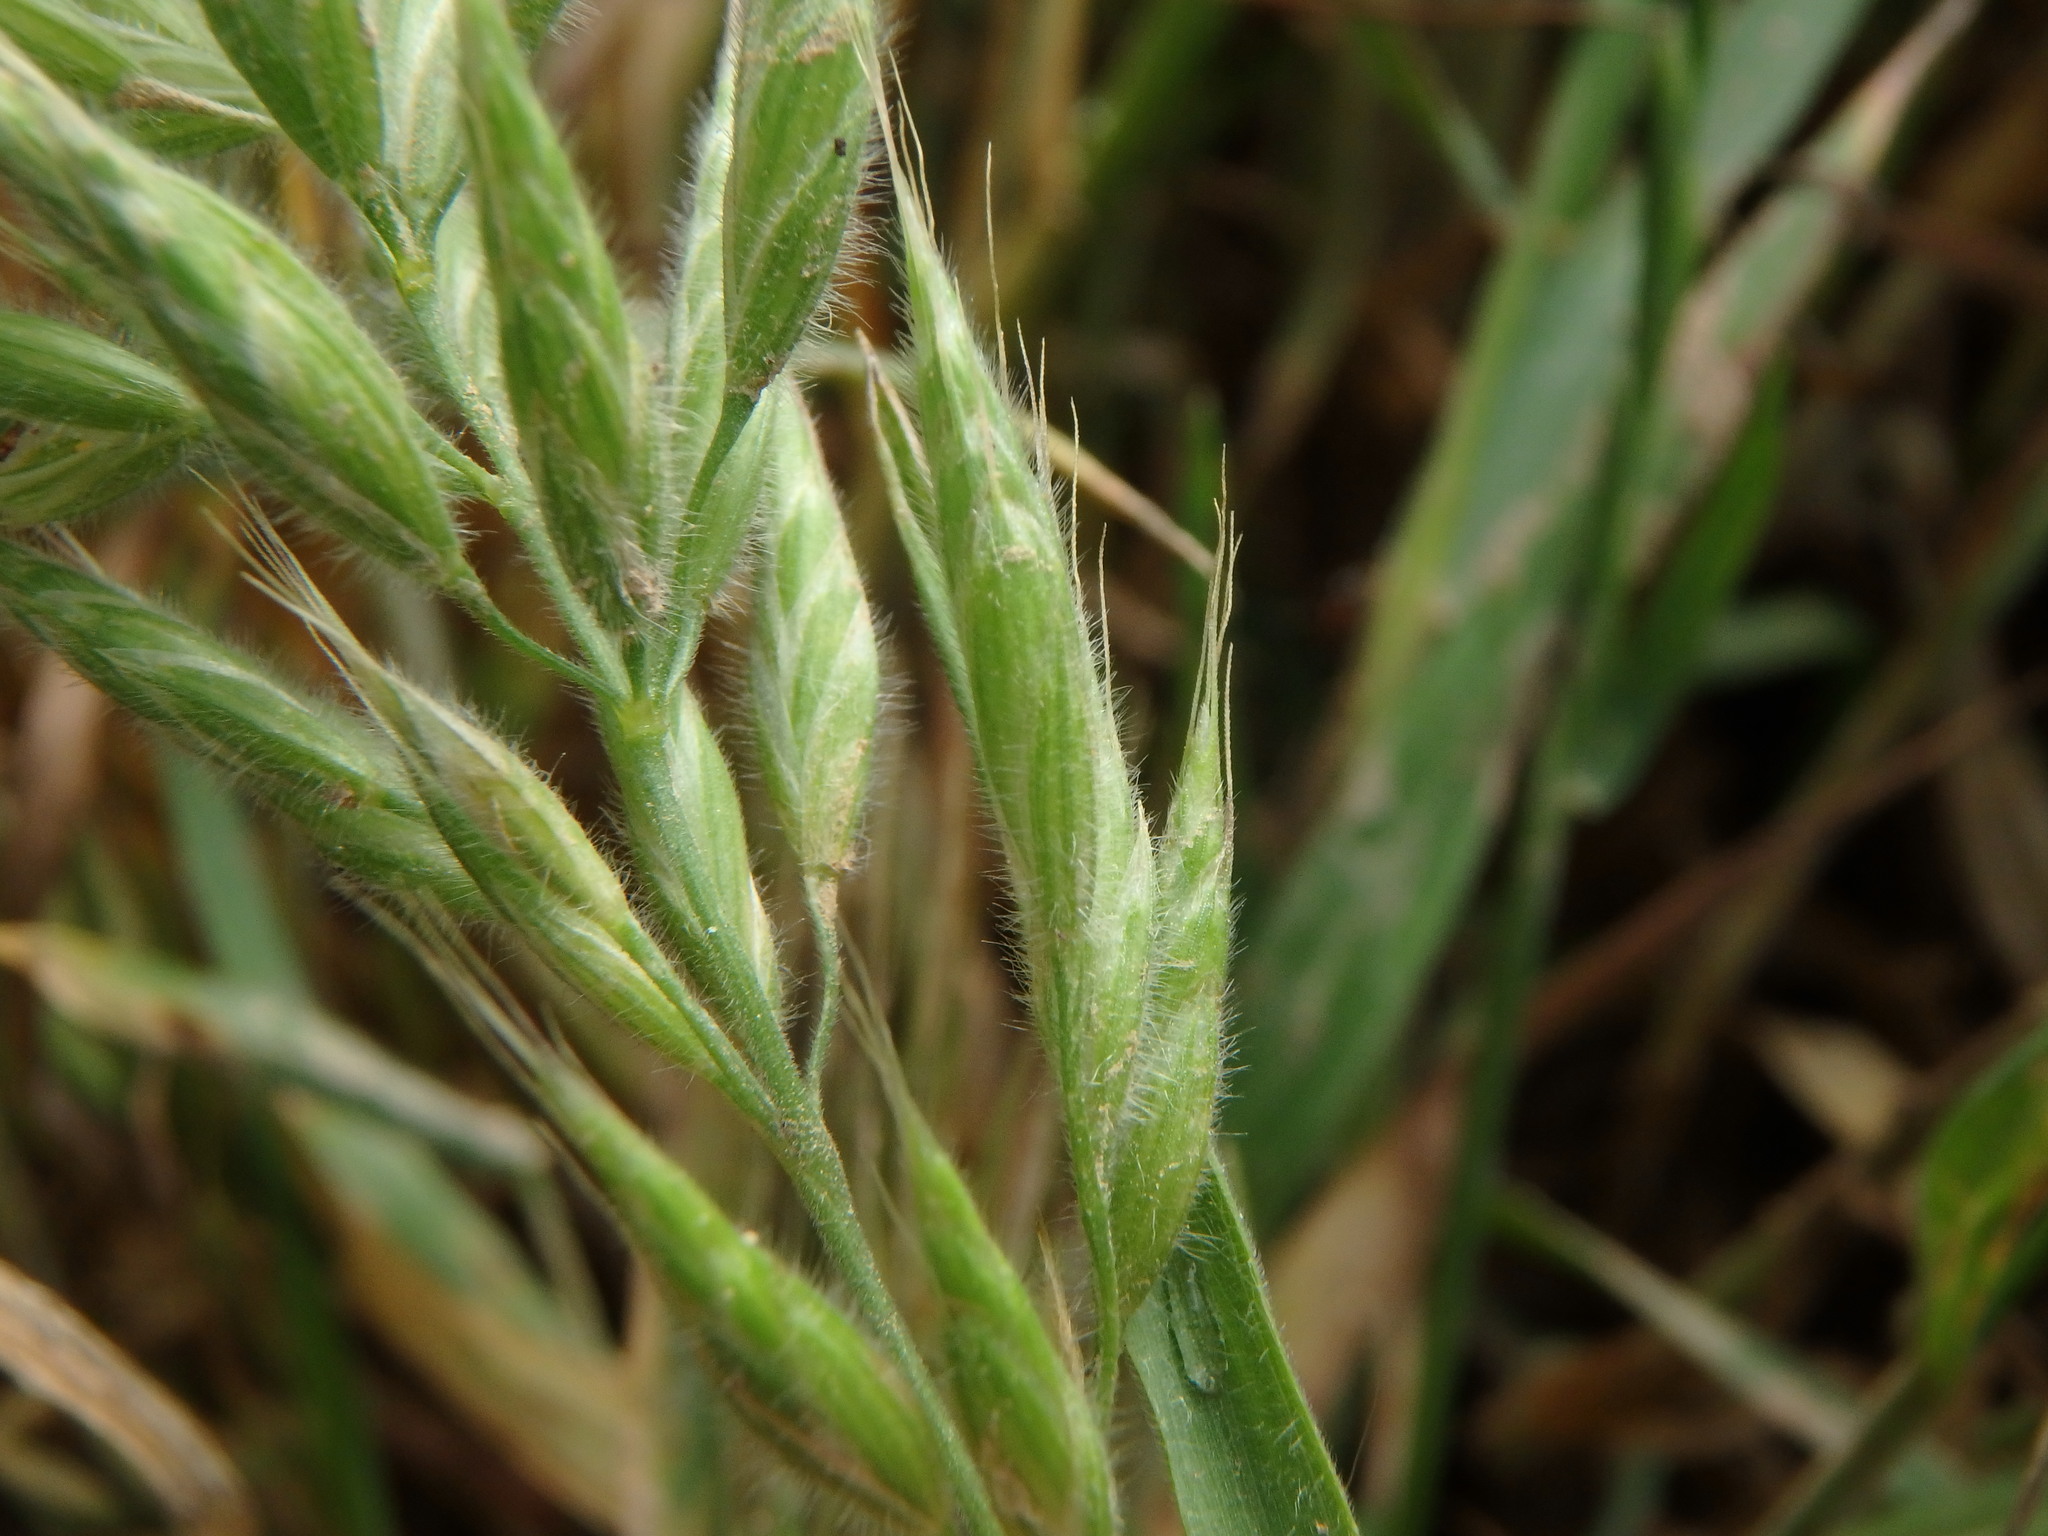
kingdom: Plantae
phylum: Tracheophyta
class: Liliopsida
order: Poales
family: Poaceae
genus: Bromus
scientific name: Bromus hordeaceus
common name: Soft brome
